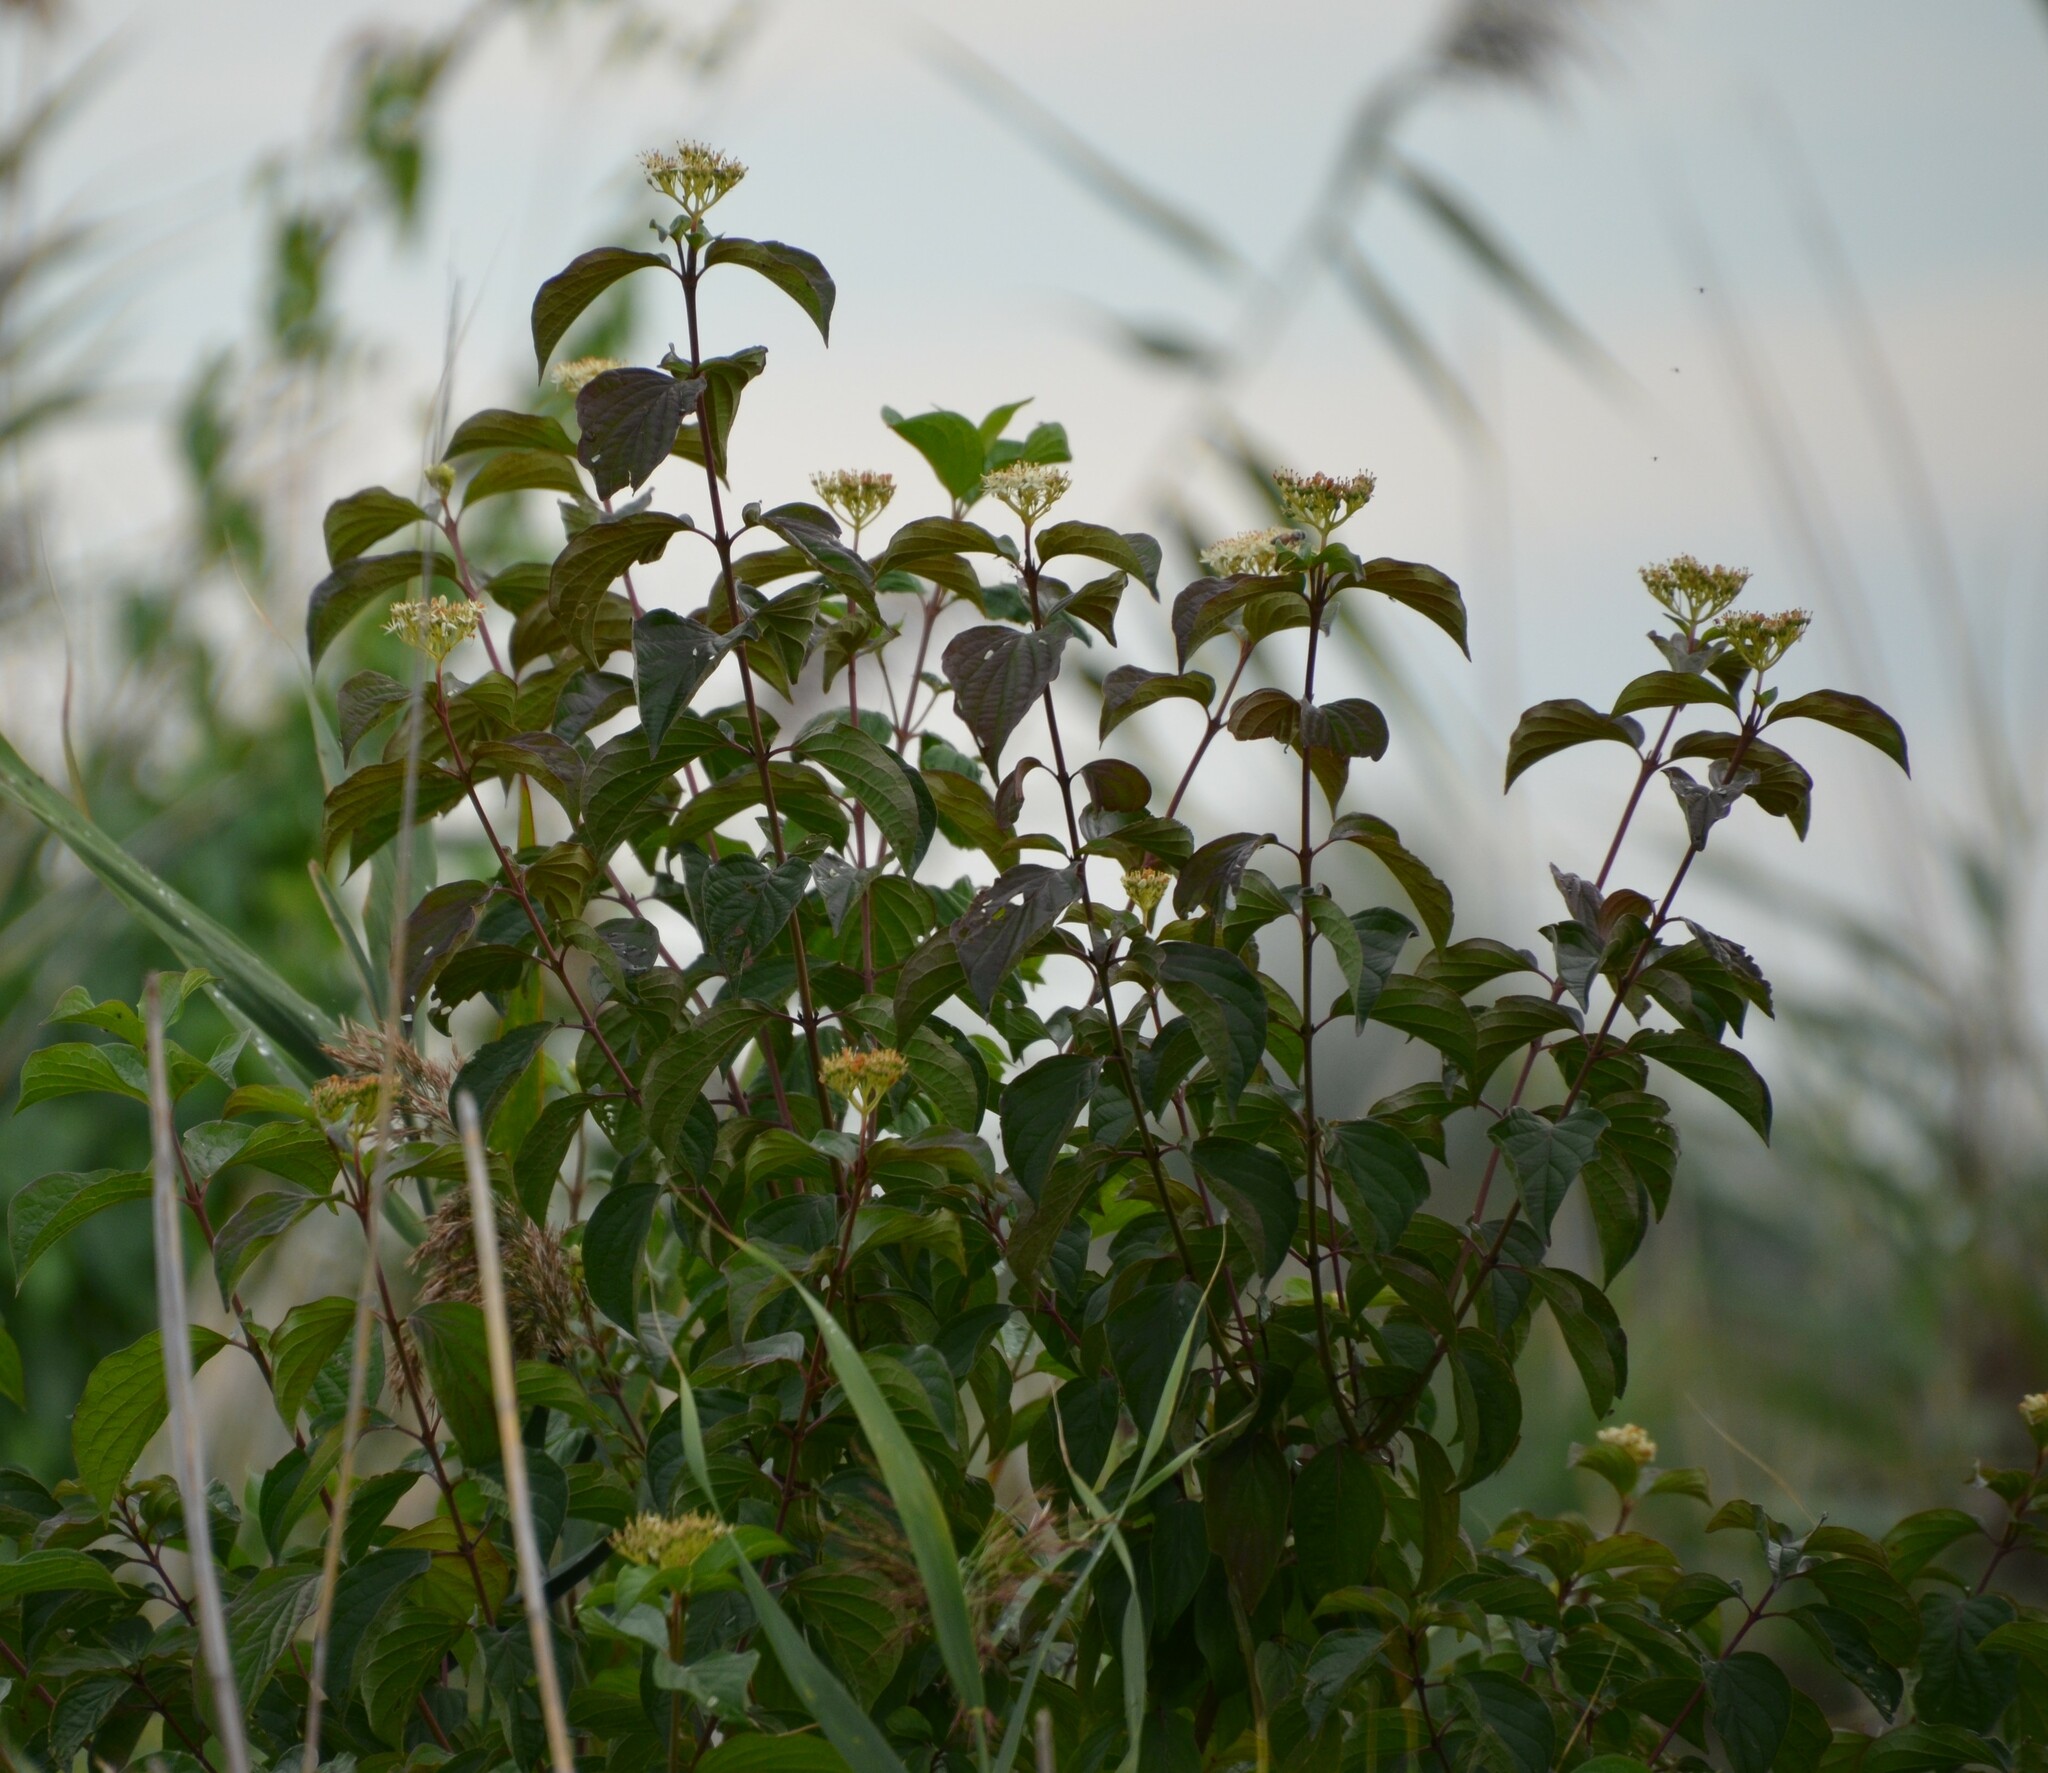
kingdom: Plantae
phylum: Tracheophyta
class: Magnoliopsida
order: Cornales
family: Cornaceae
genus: Cornus
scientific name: Cornus sanguinea
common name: Dogwood
